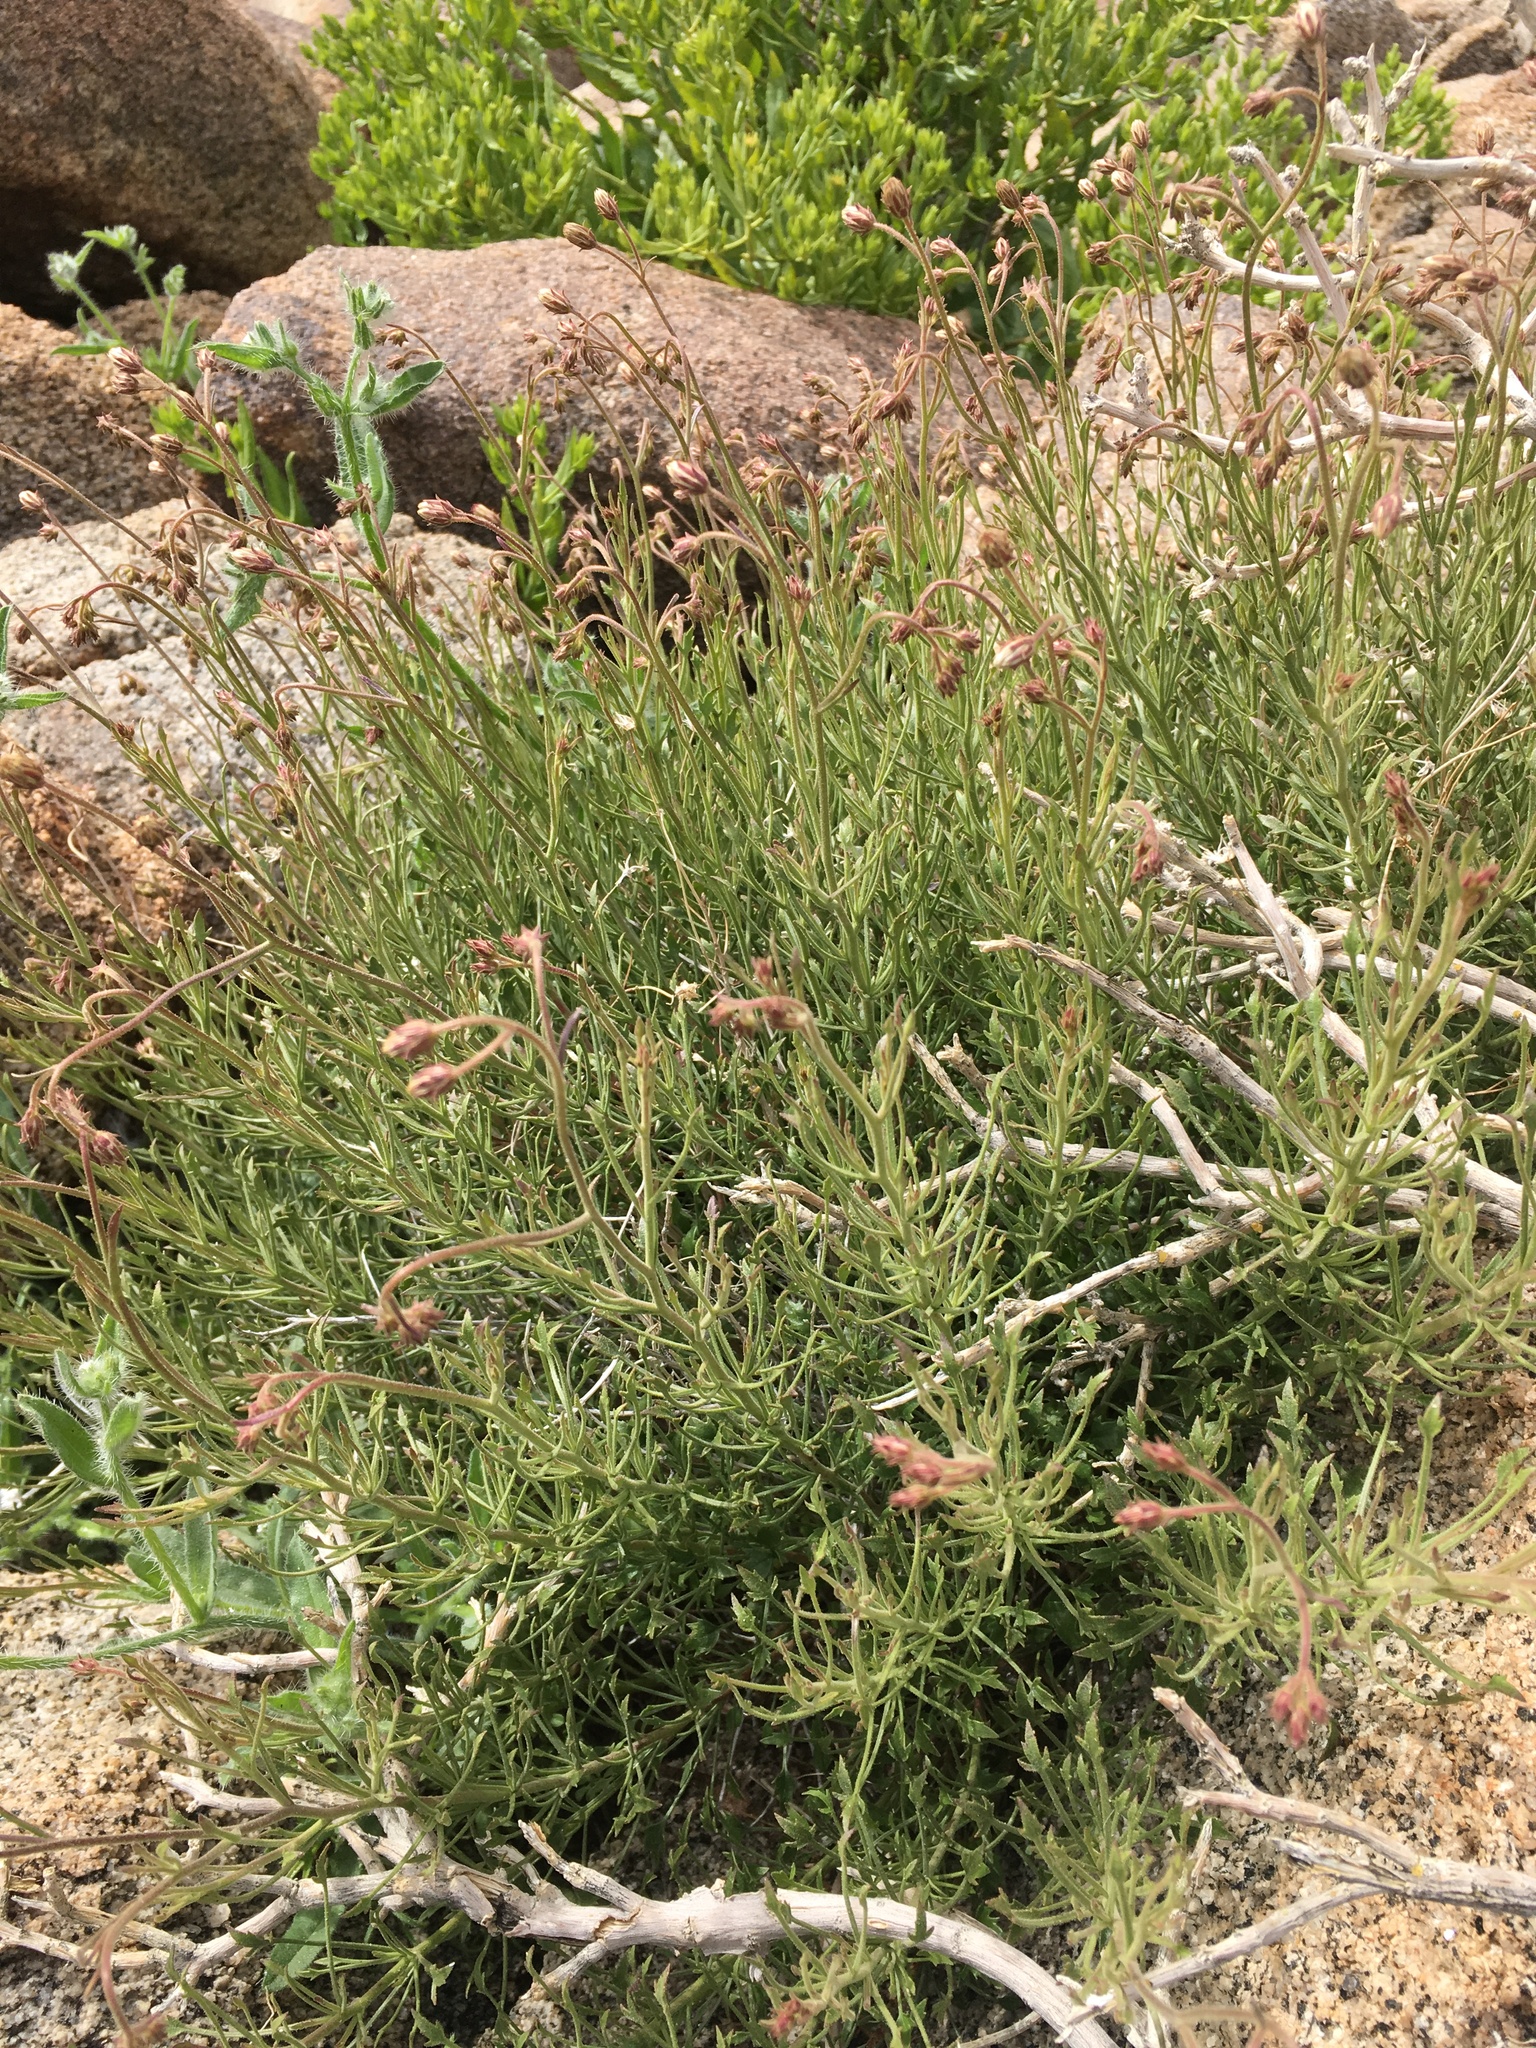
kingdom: Plantae
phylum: Tracheophyta
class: Magnoliopsida
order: Asterales
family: Asteraceae
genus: Pleurocoronis
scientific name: Pleurocoronis pluriseta
